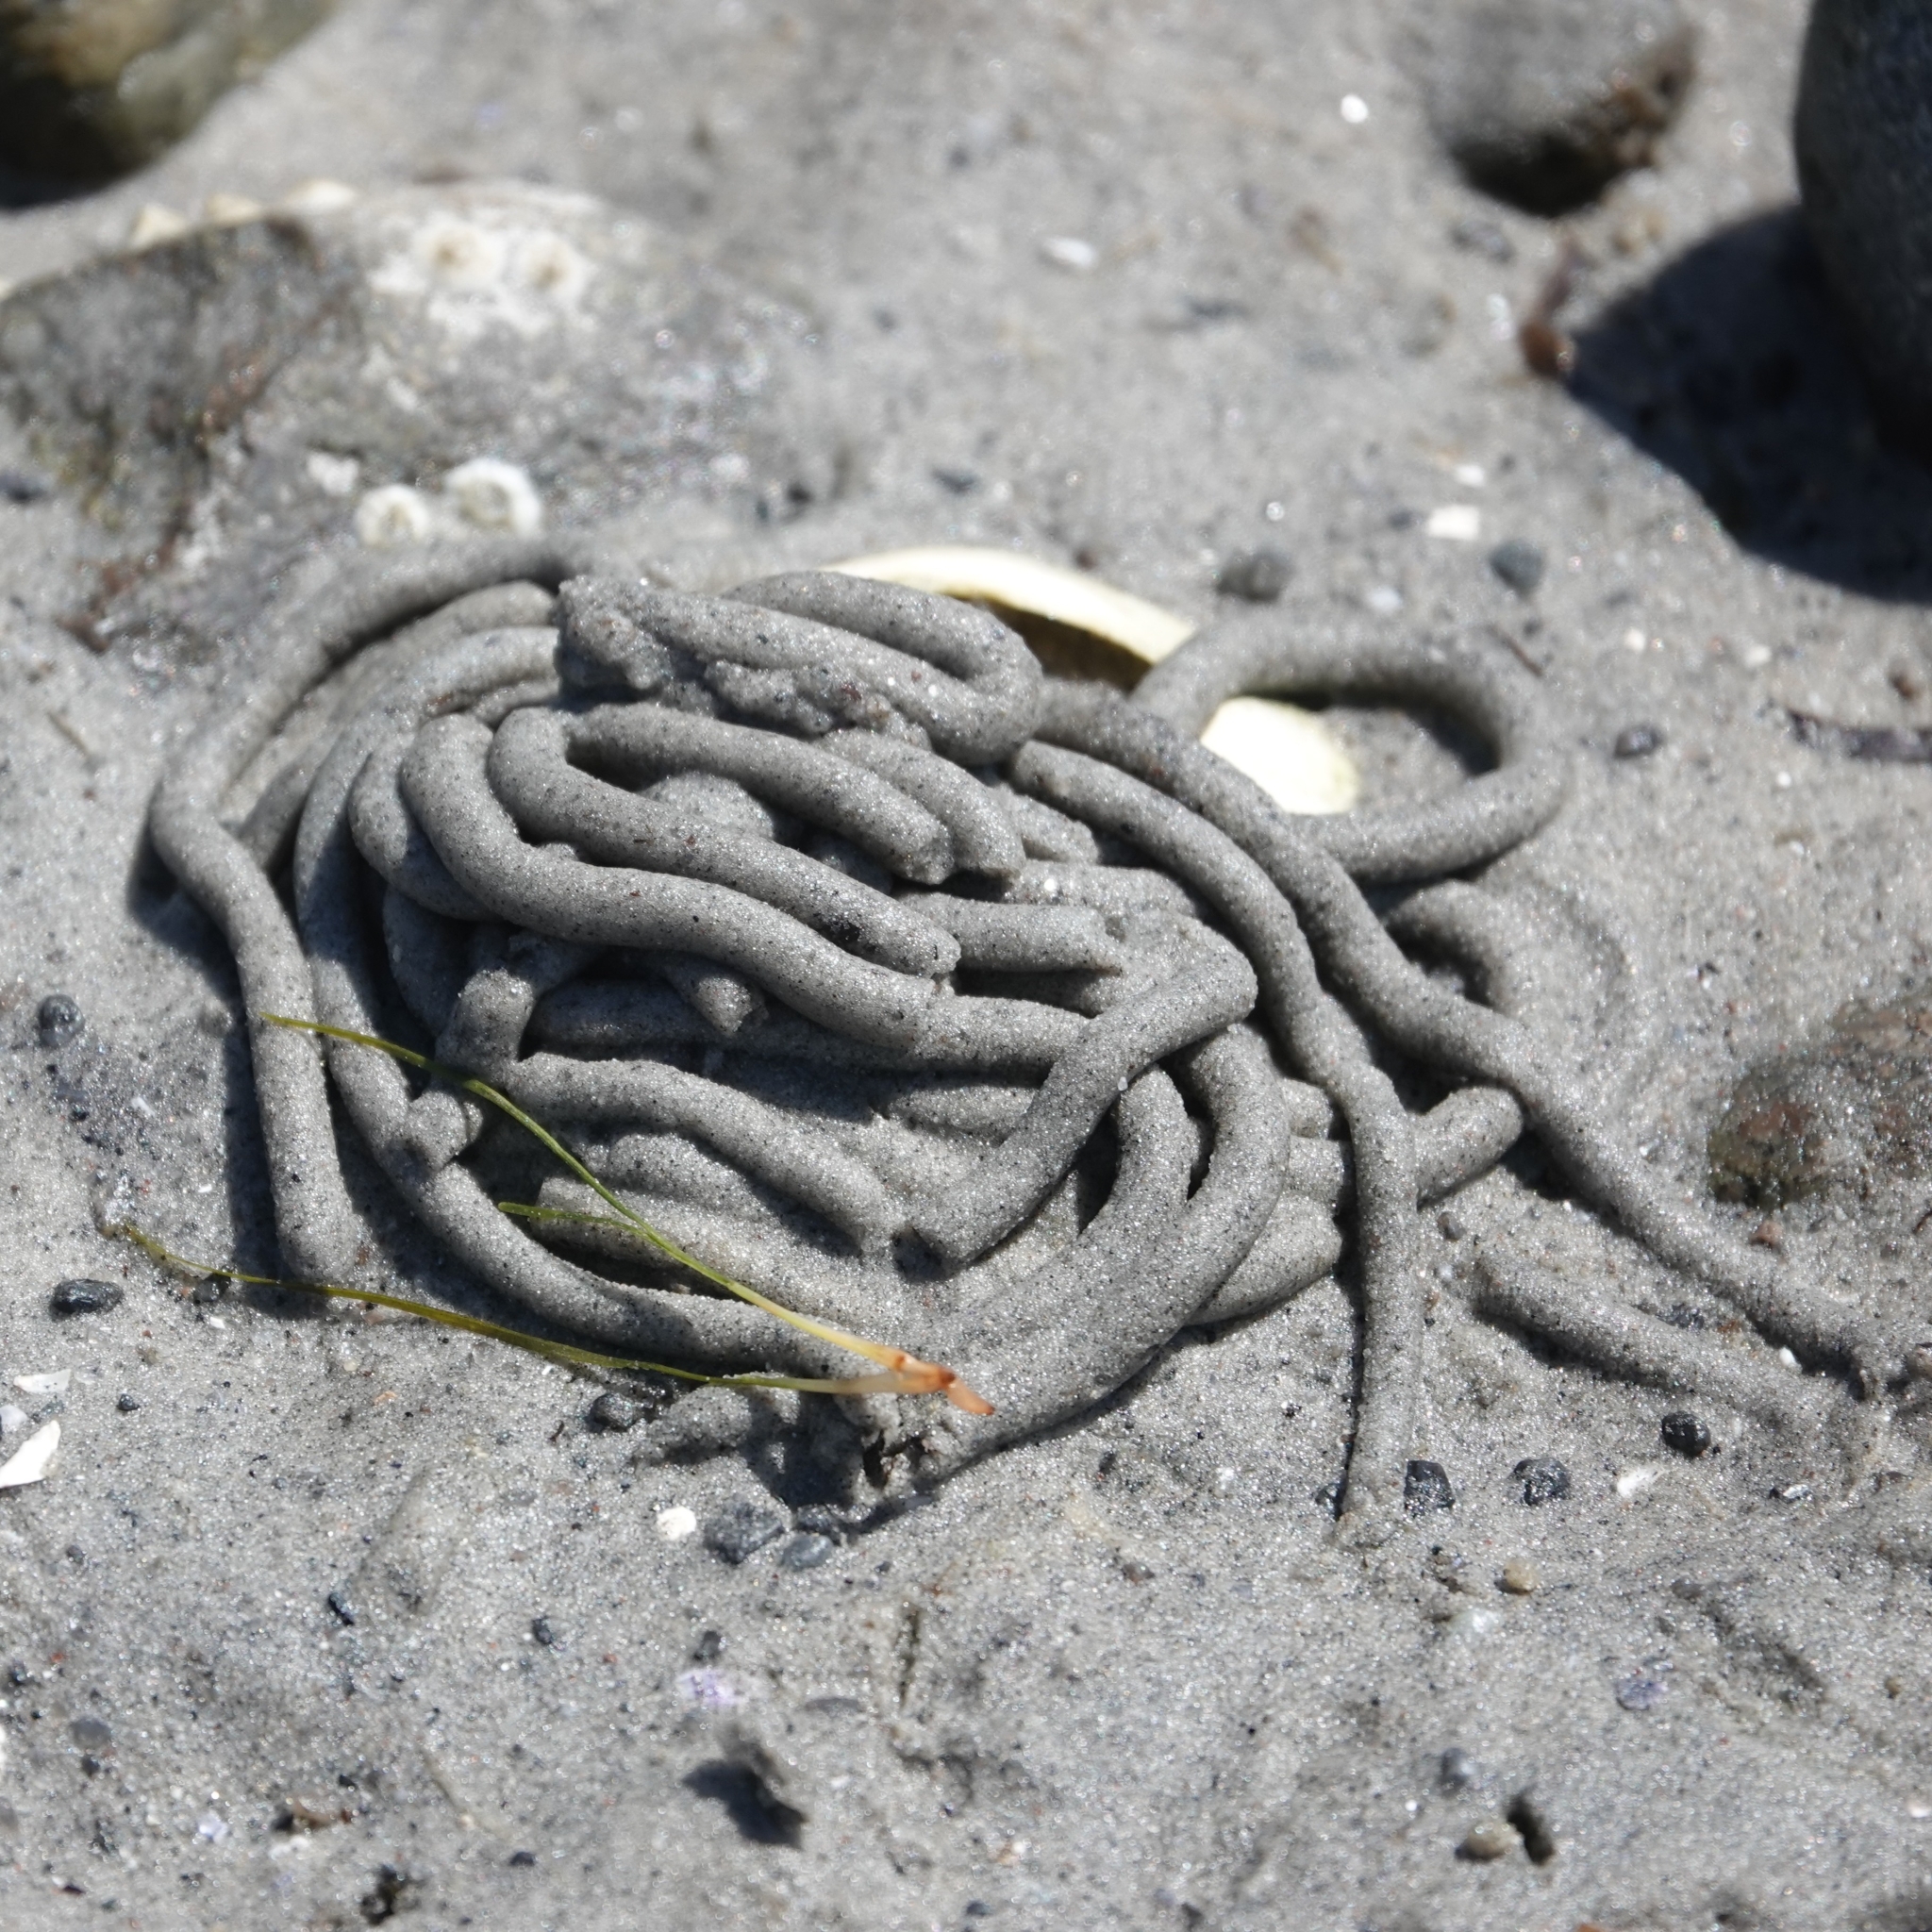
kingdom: Animalia
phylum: Annelida
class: Polychaeta
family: Arenicolidae
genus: Arenicola
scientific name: Arenicola marina
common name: Blow lugworm
